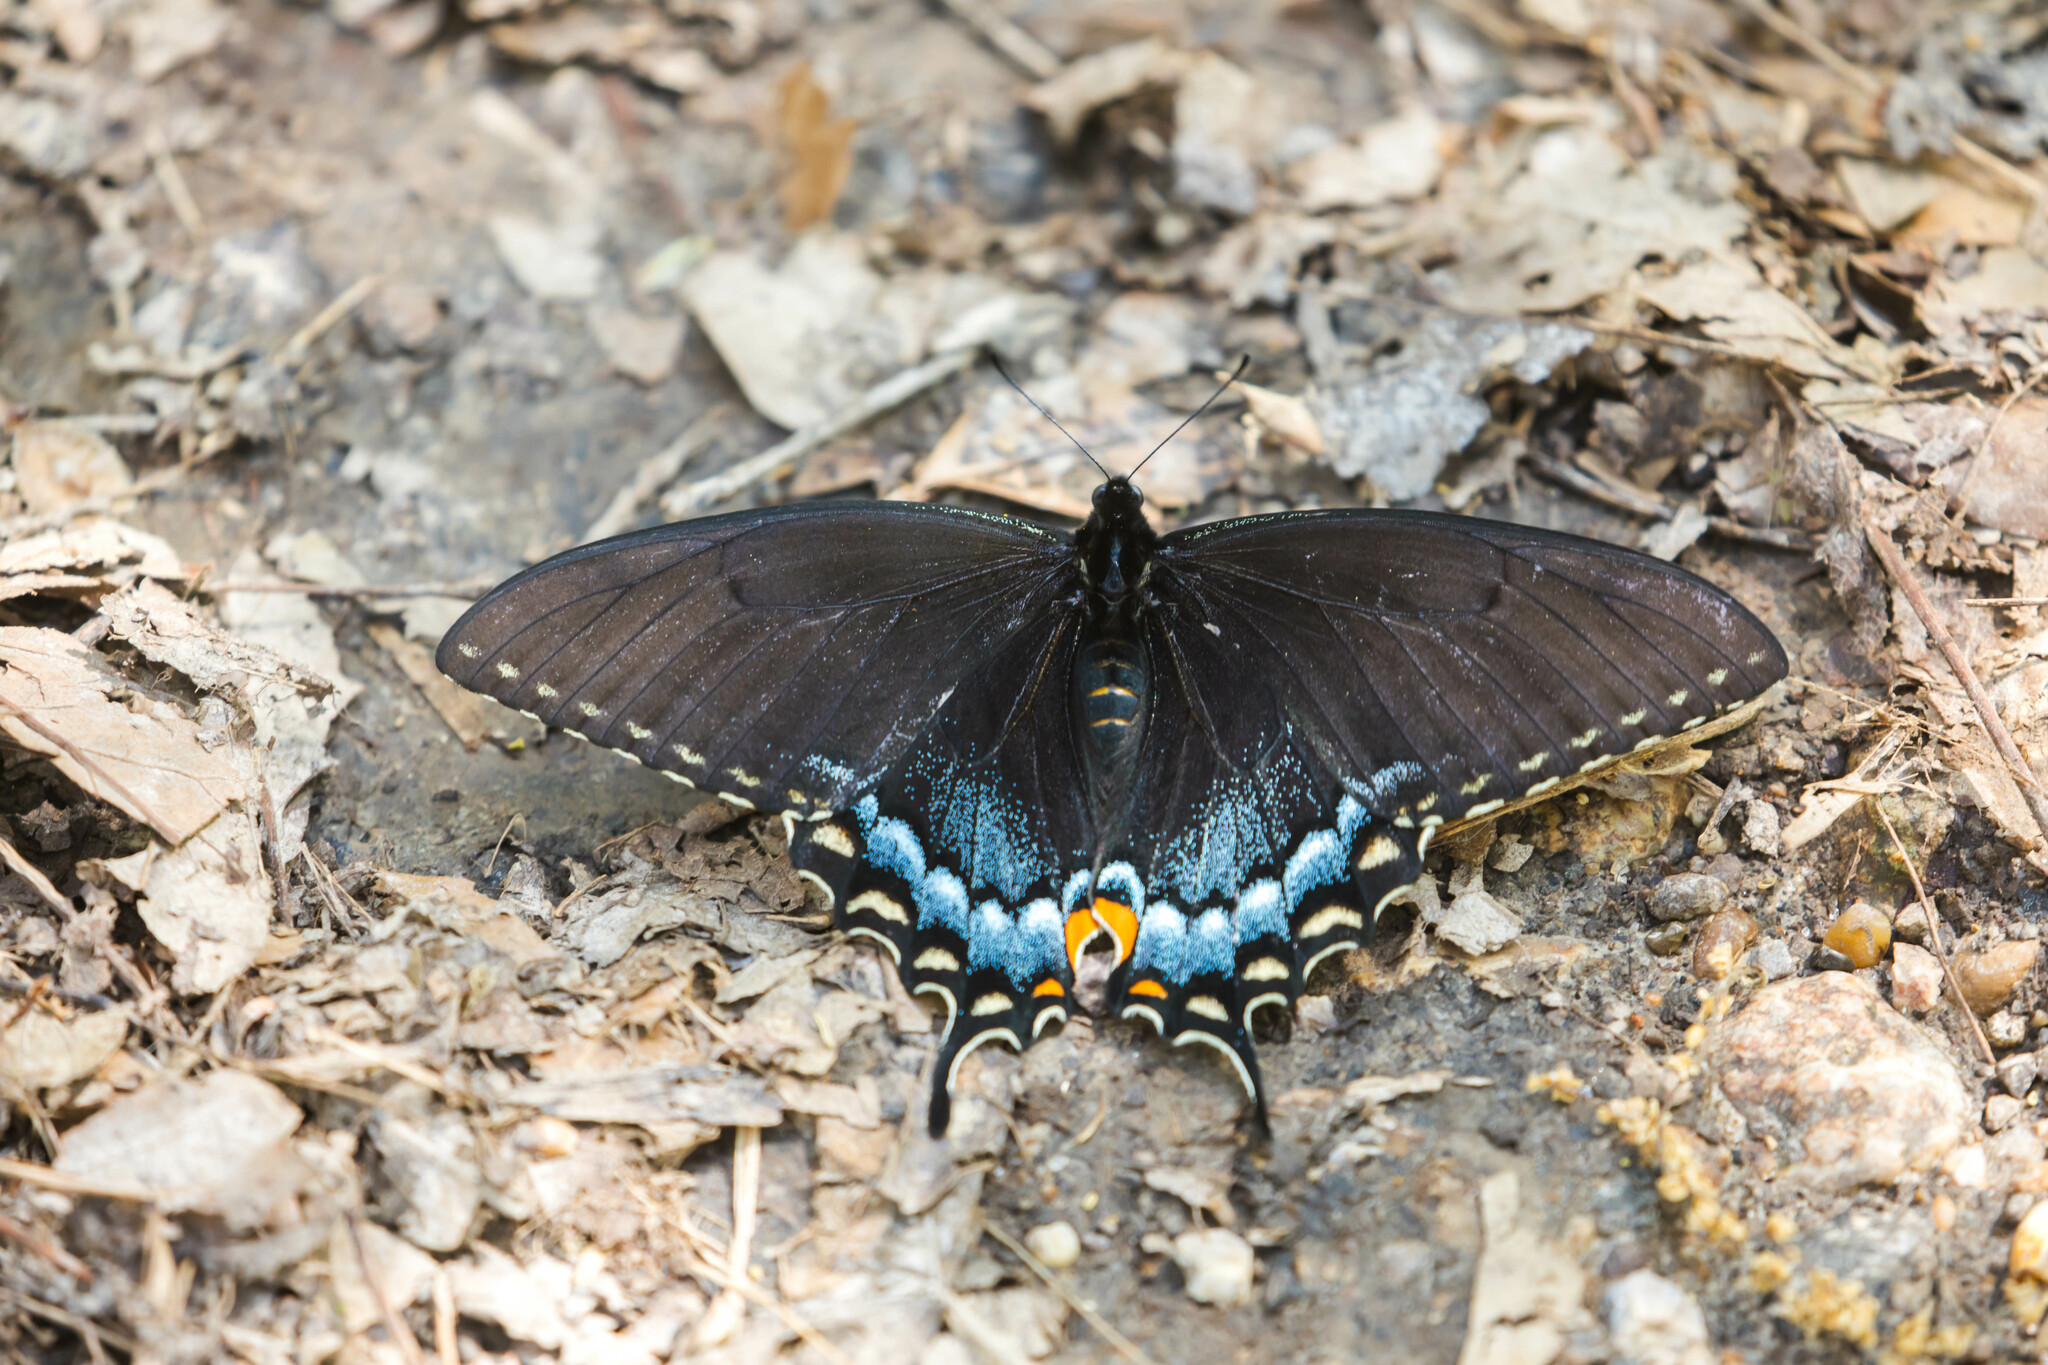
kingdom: Animalia
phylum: Arthropoda
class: Insecta
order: Lepidoptera
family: Papilionidae
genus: Papilio
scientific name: Papilio glaucus
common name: Tiger swallowtail
